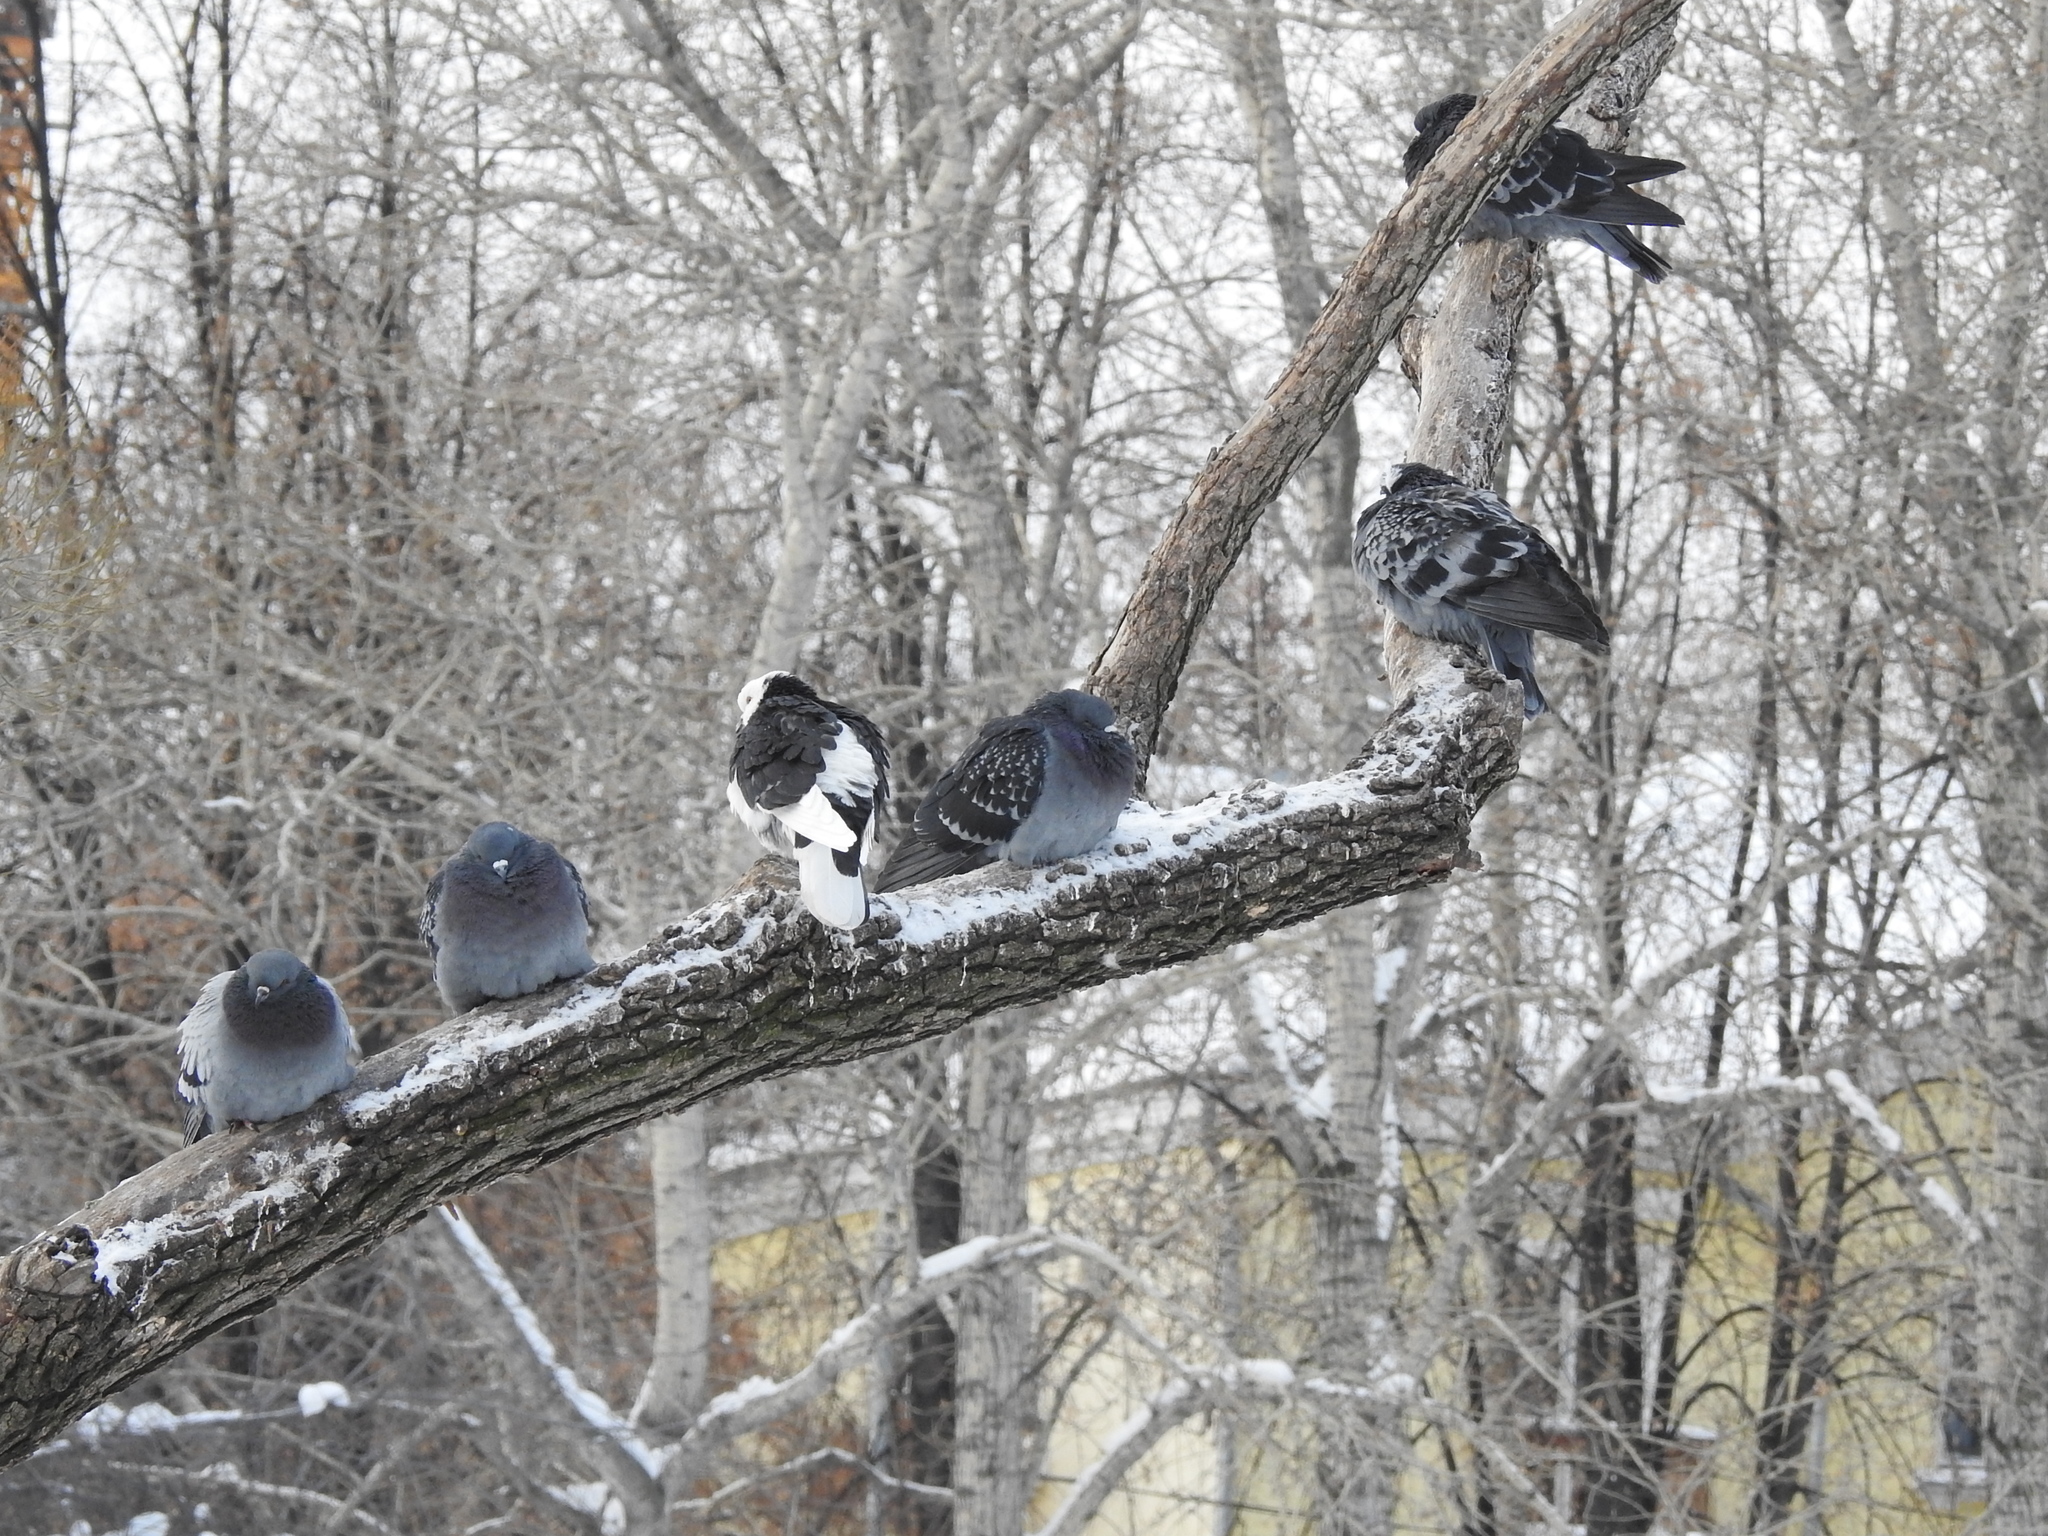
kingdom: Animalia
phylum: Chordata
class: Aves
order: Columbiformes
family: Columbidae
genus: Columba
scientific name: Columba livia
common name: Rock pigeon
